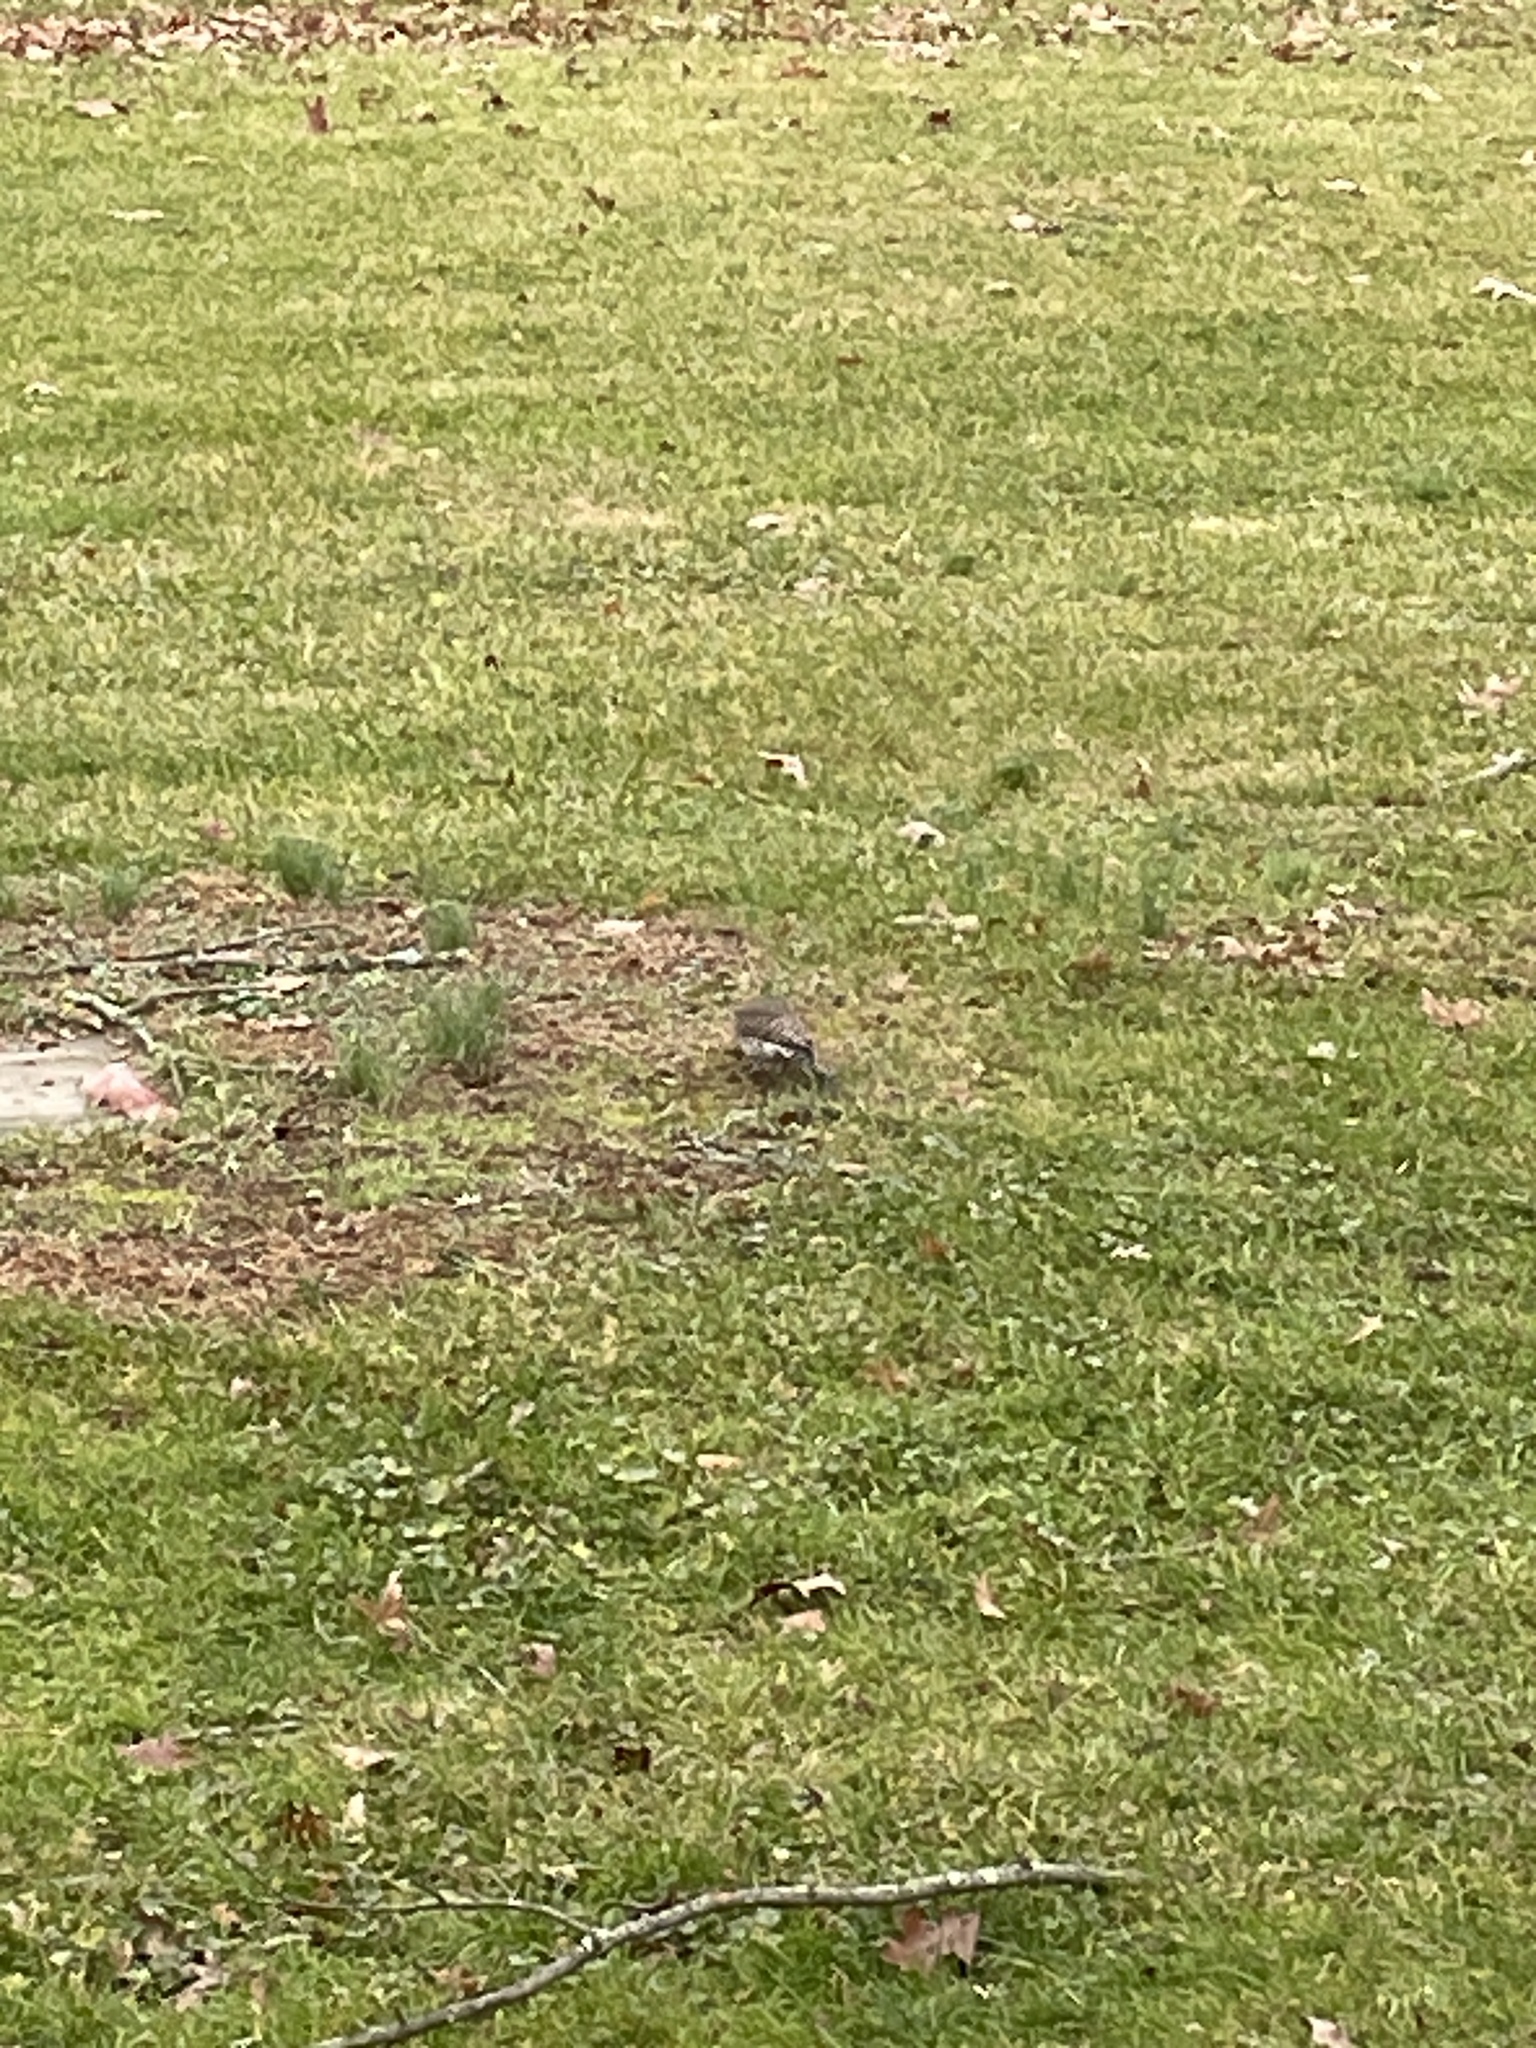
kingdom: Animalia
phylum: Chordata
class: Aves
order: Piciformes
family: Picidae
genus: Colaptes
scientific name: Colaptes auratus
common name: Northern flicker
